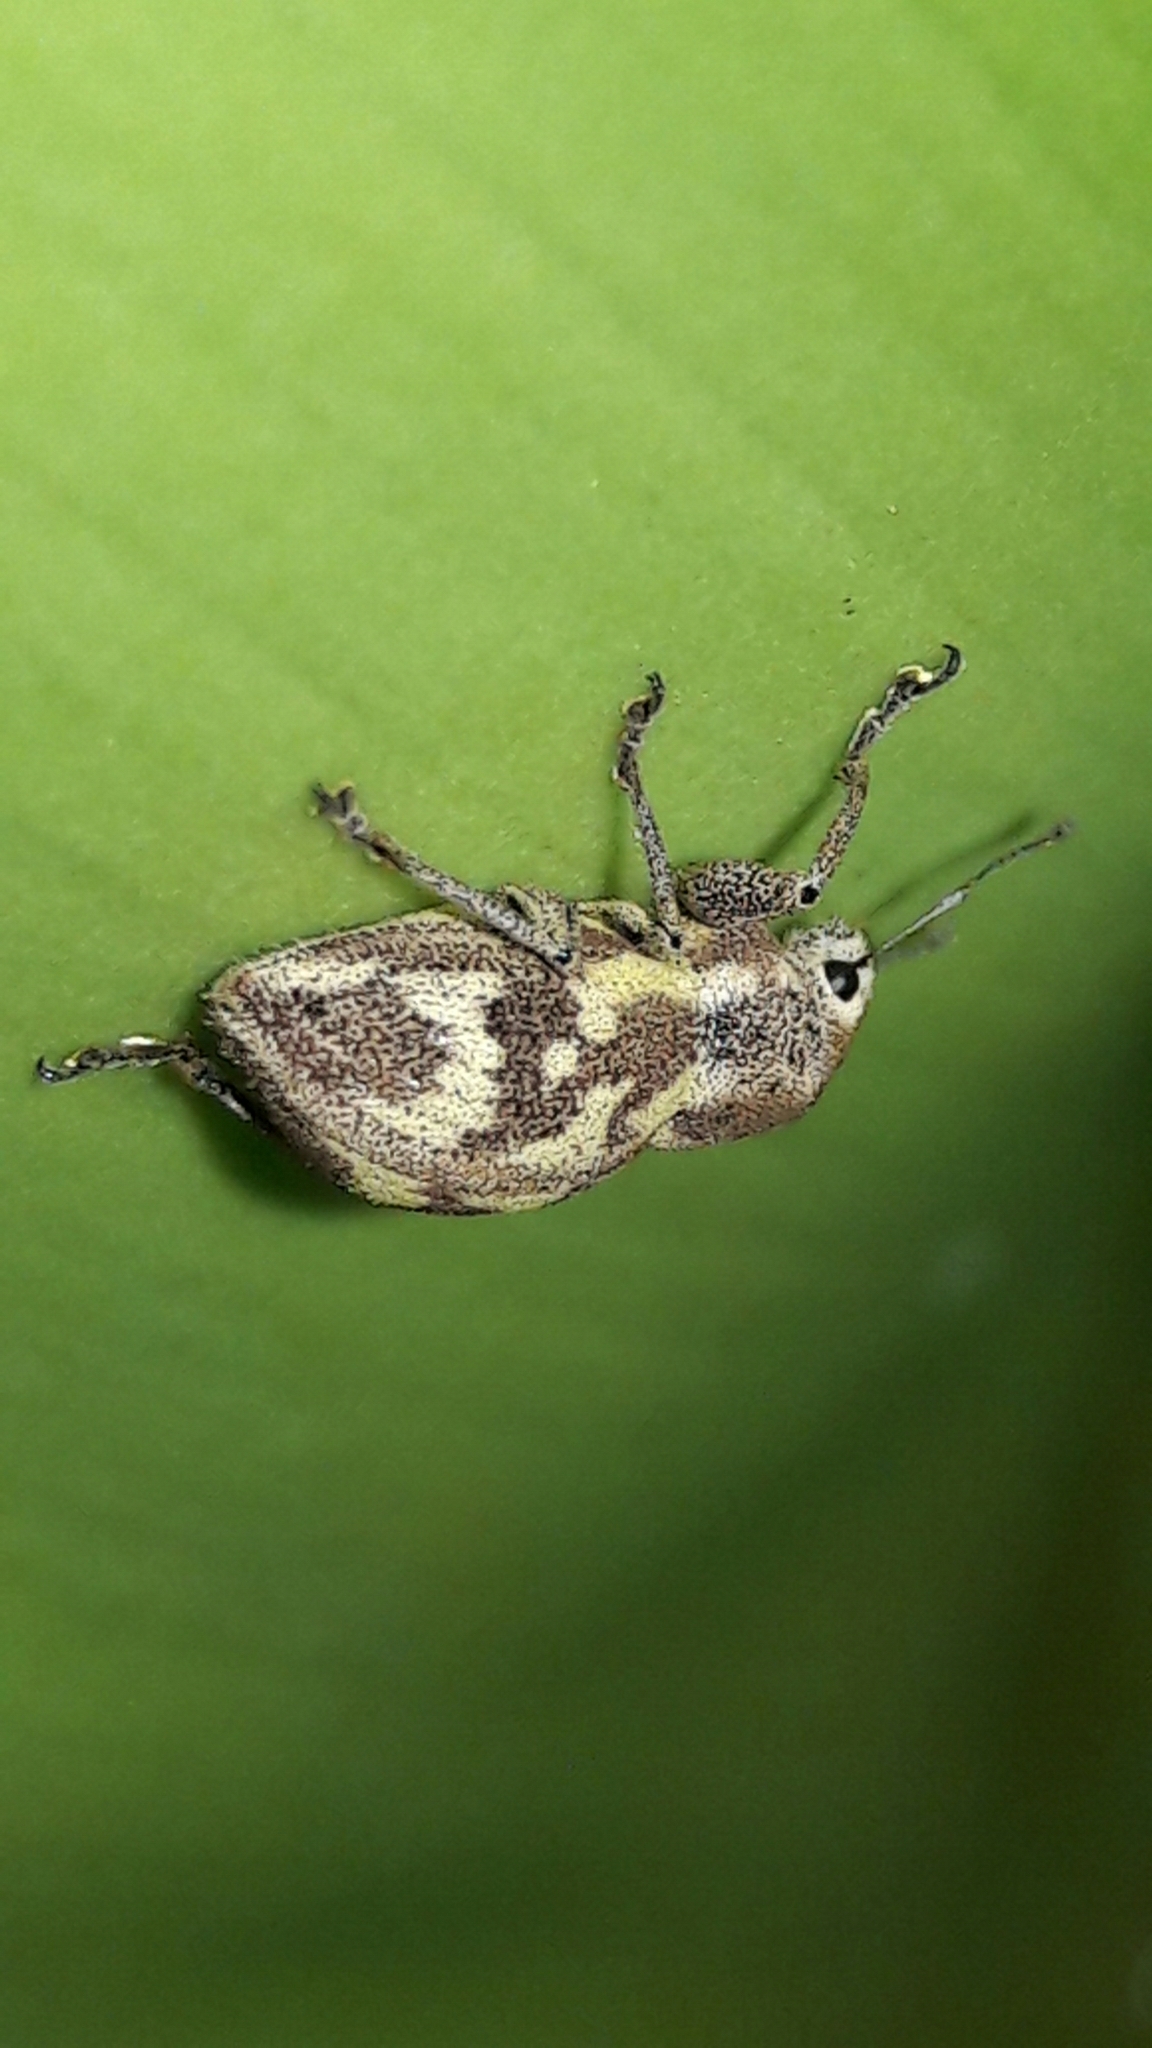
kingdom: Animalia
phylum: Arthropoda
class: Insecta
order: Coleoptera
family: Curculionidae
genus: Parapantomorus
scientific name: Parapantomorus fluctuosus
